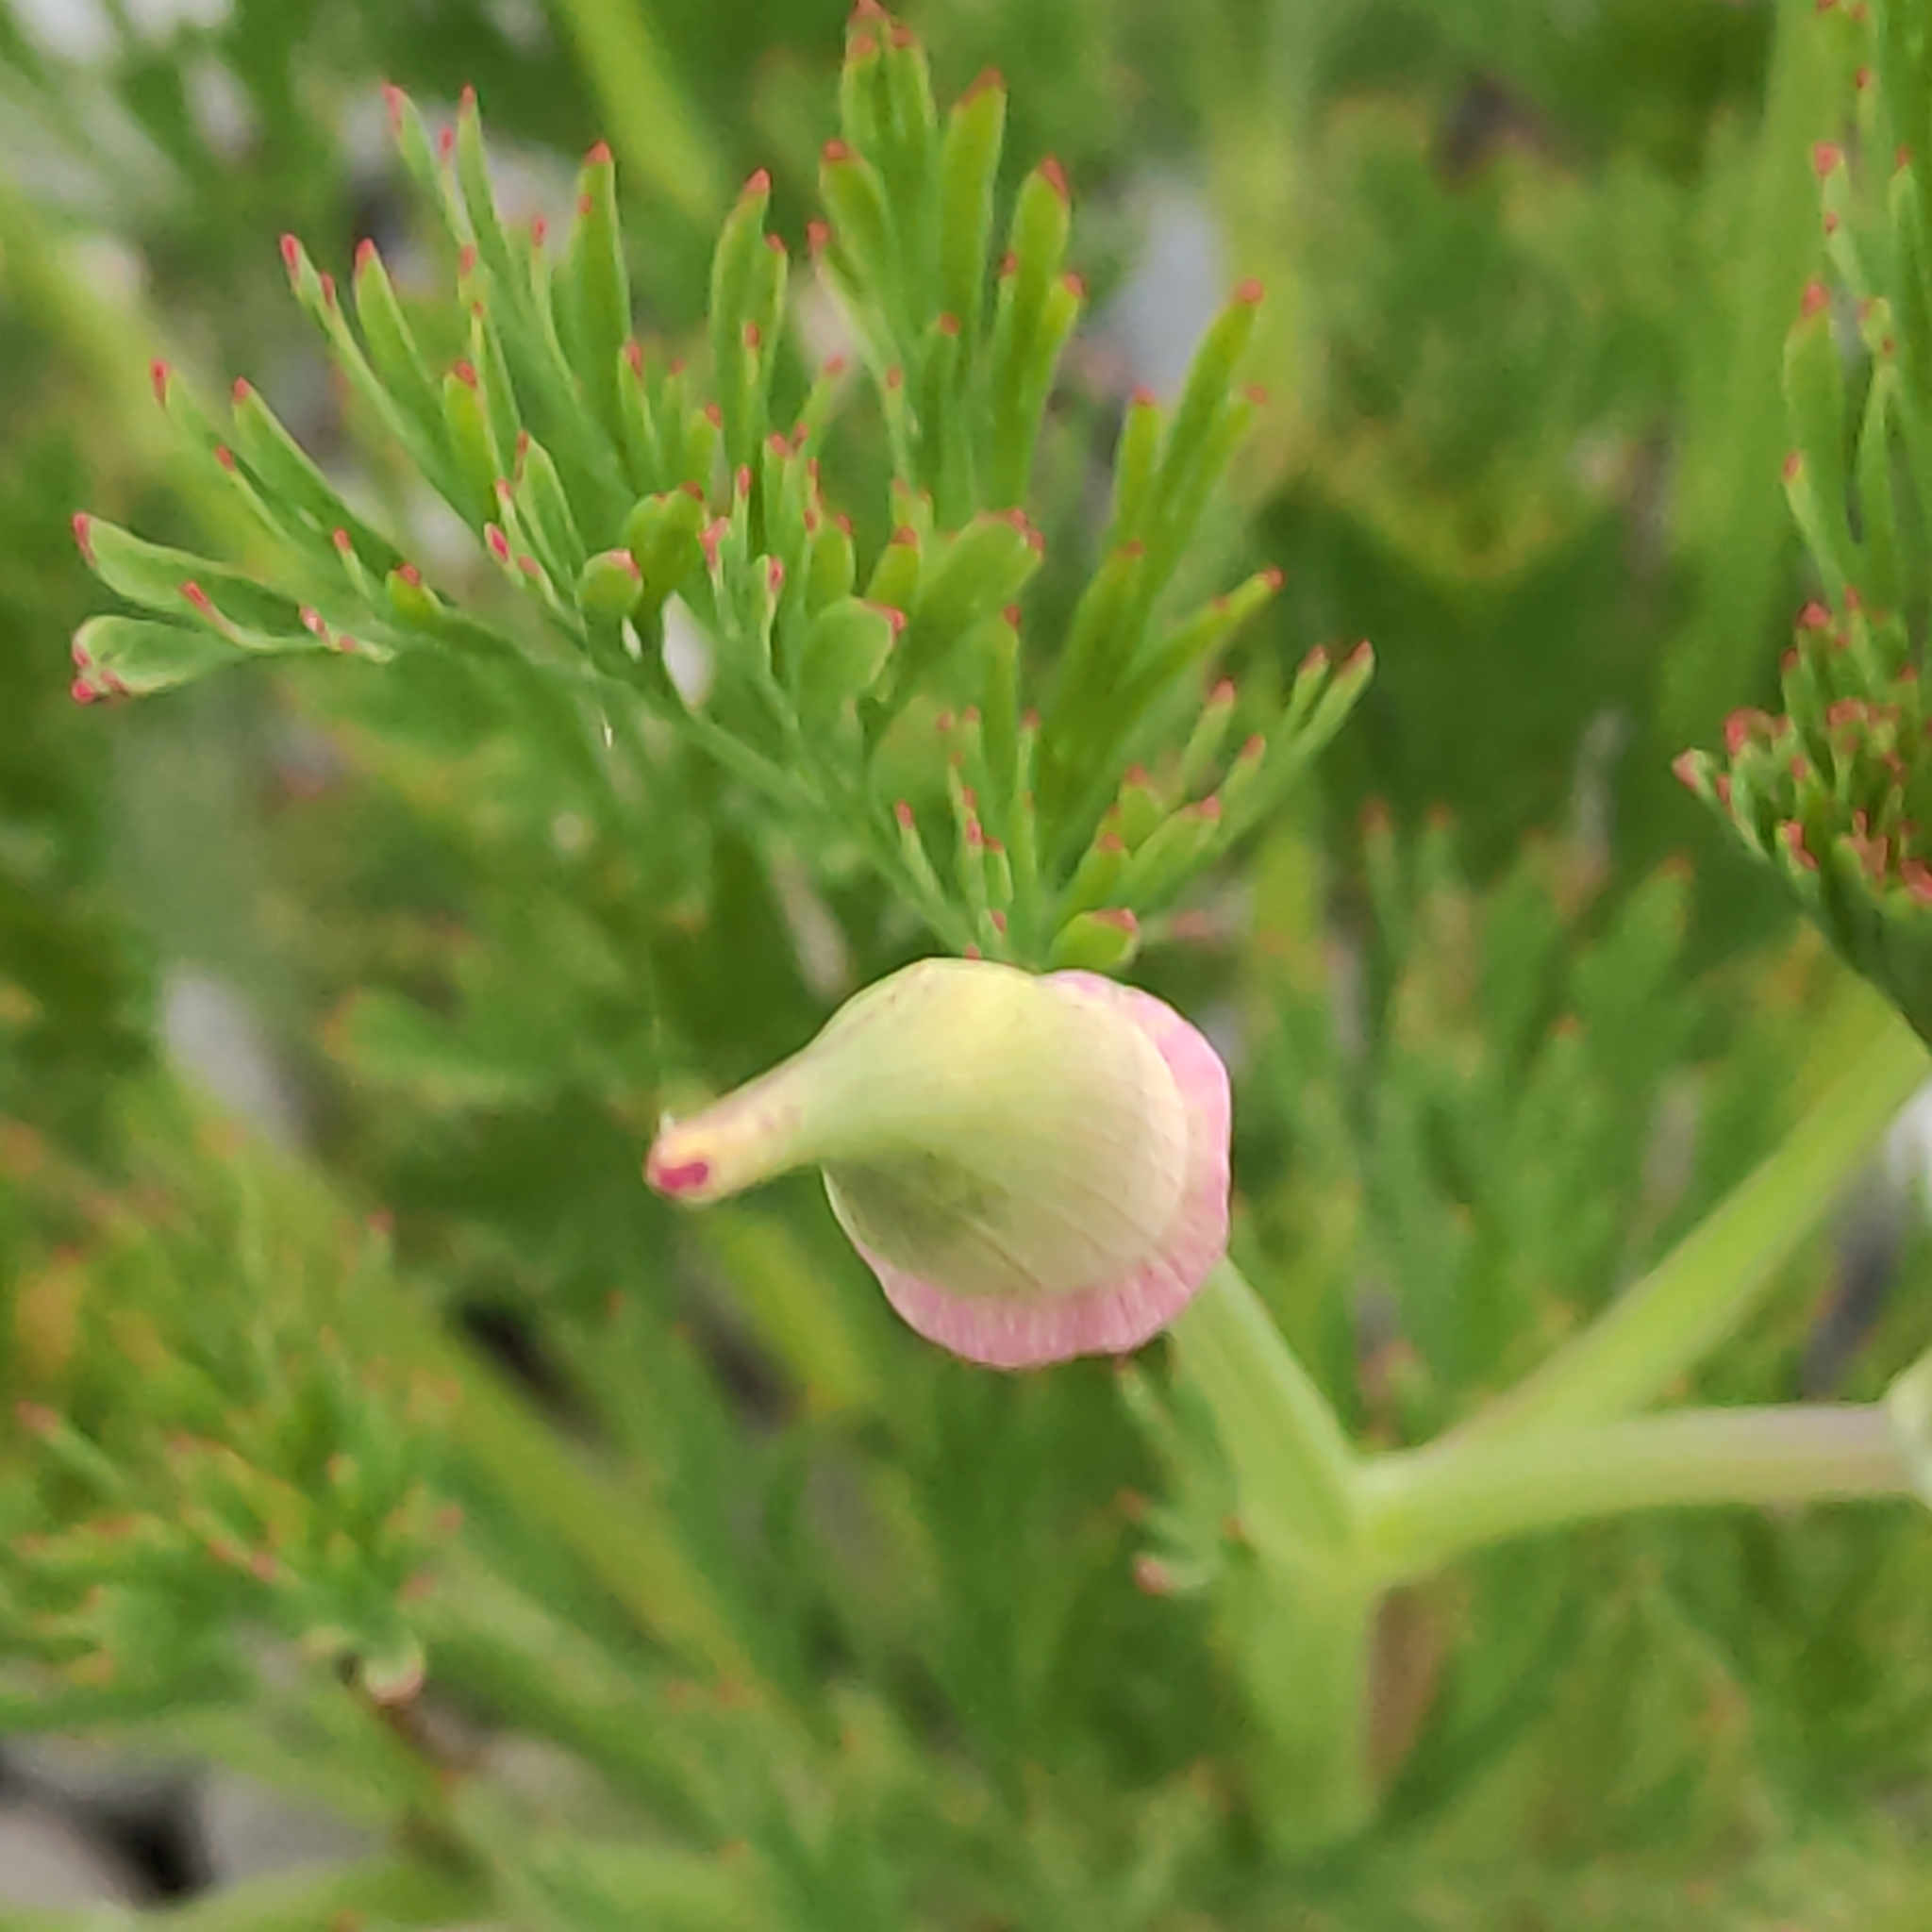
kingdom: Plantae
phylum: Tracheophyta
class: Magnoliopsida
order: Ranunculales
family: Papaveraceae
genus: Eschscholzia
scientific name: Eschscholzia californica
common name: California poppy
